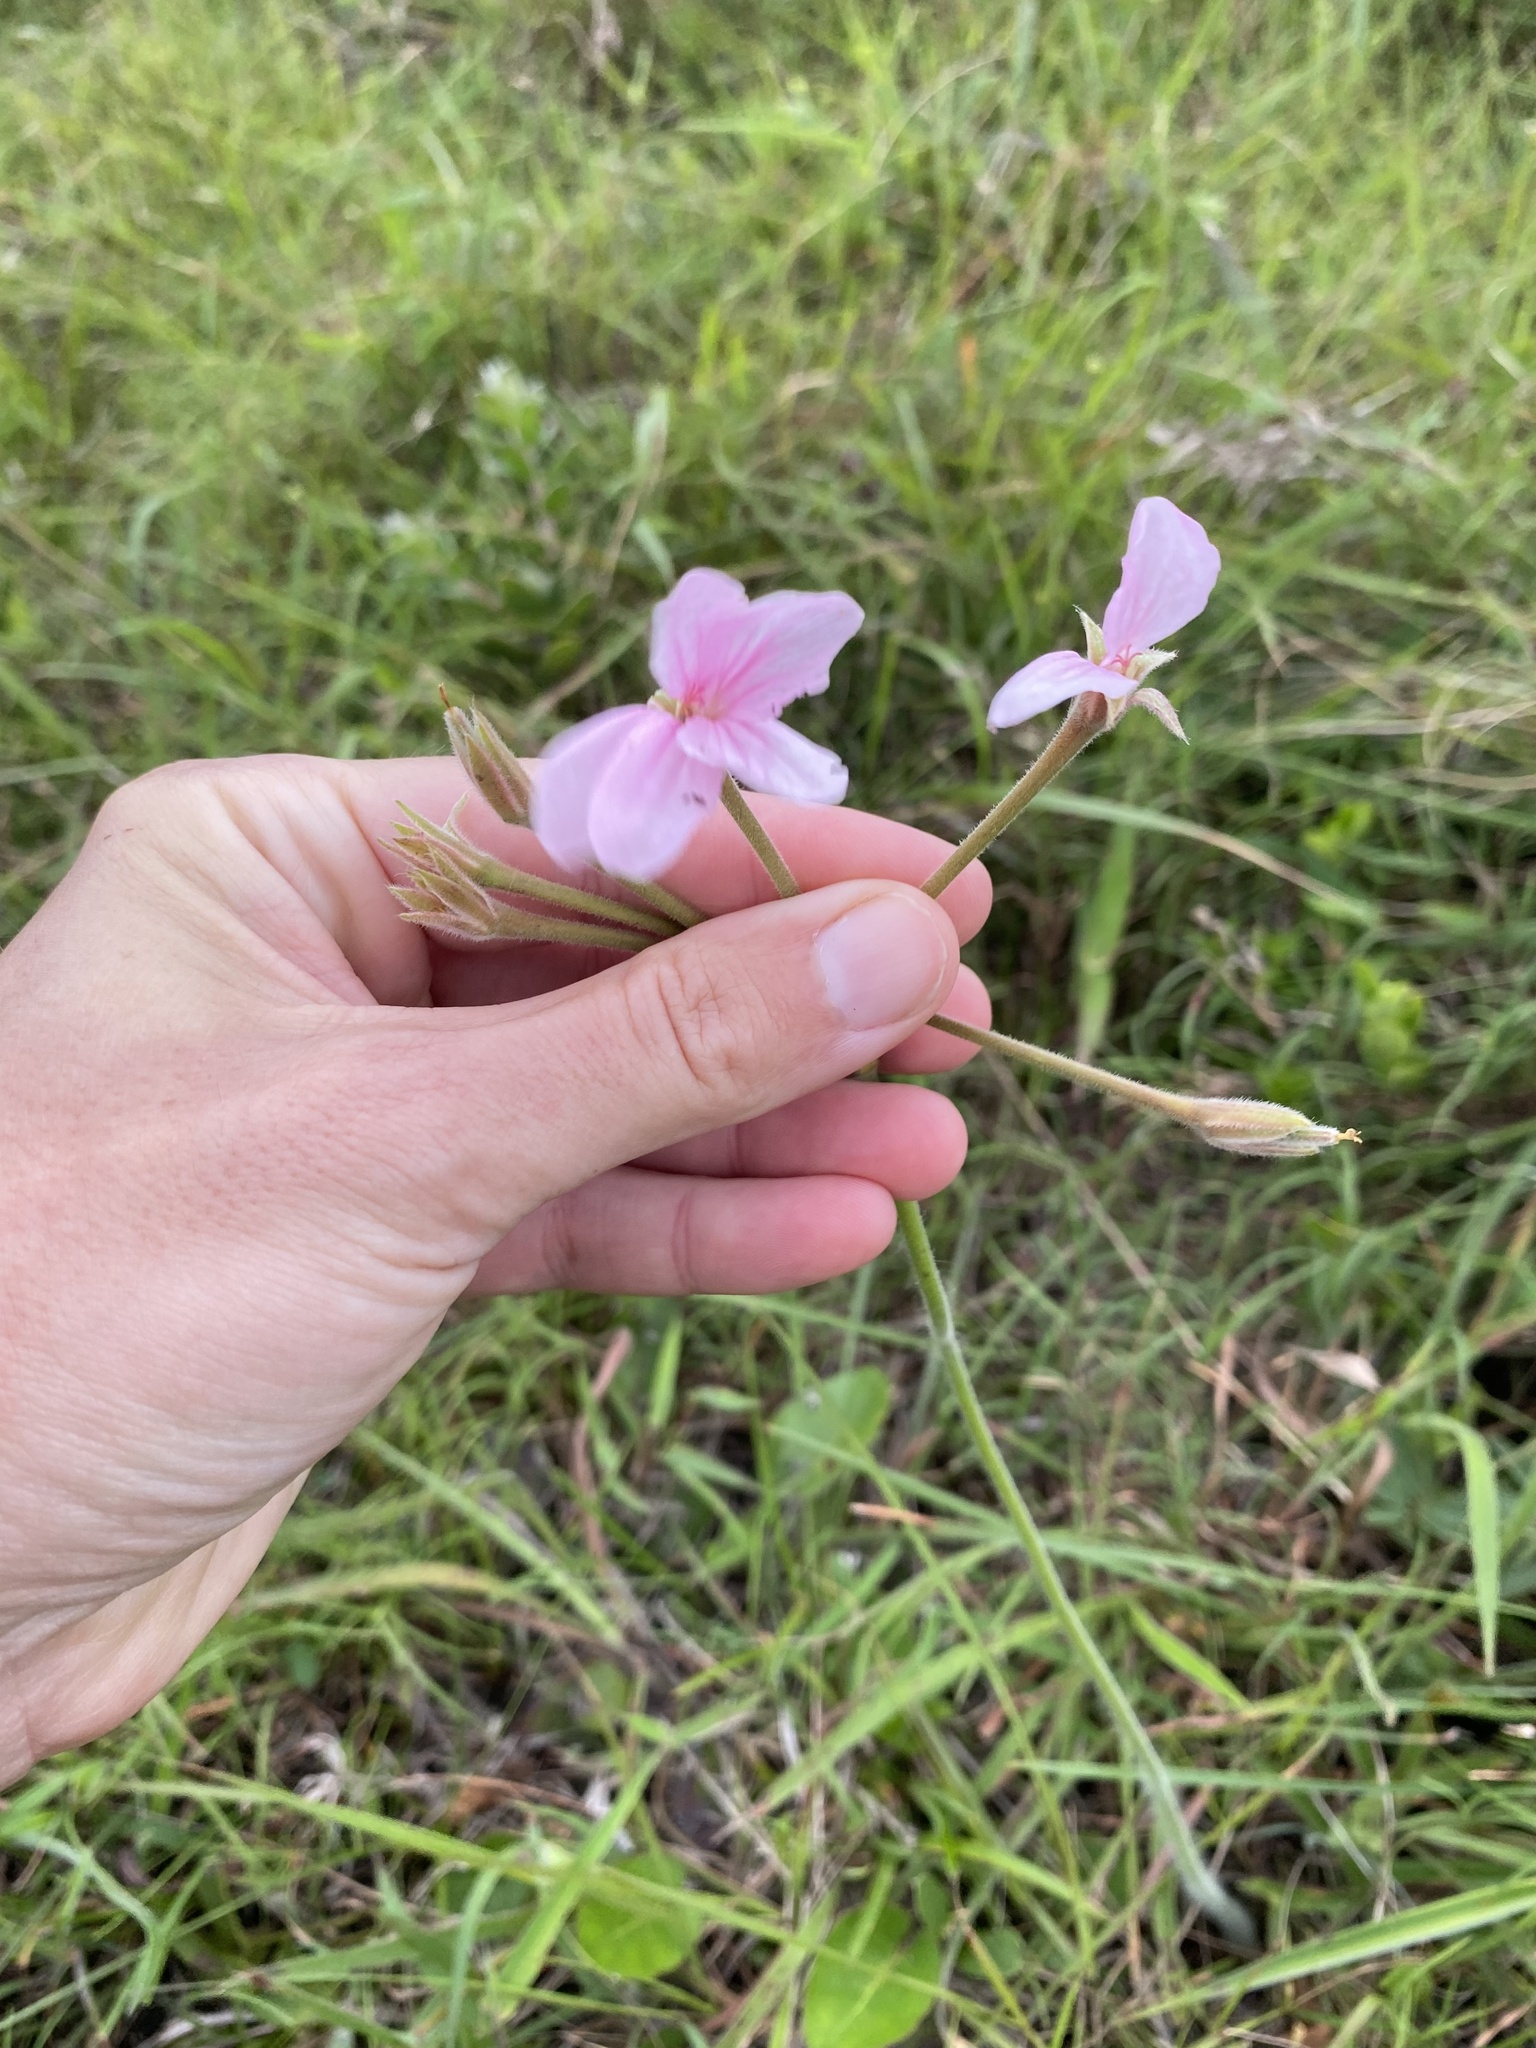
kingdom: Plantae
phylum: Tracheophyta
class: Magnoliopsida
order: Geraniales
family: Geraniaceae
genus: Pelargonium
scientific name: Pelargonium luridum
